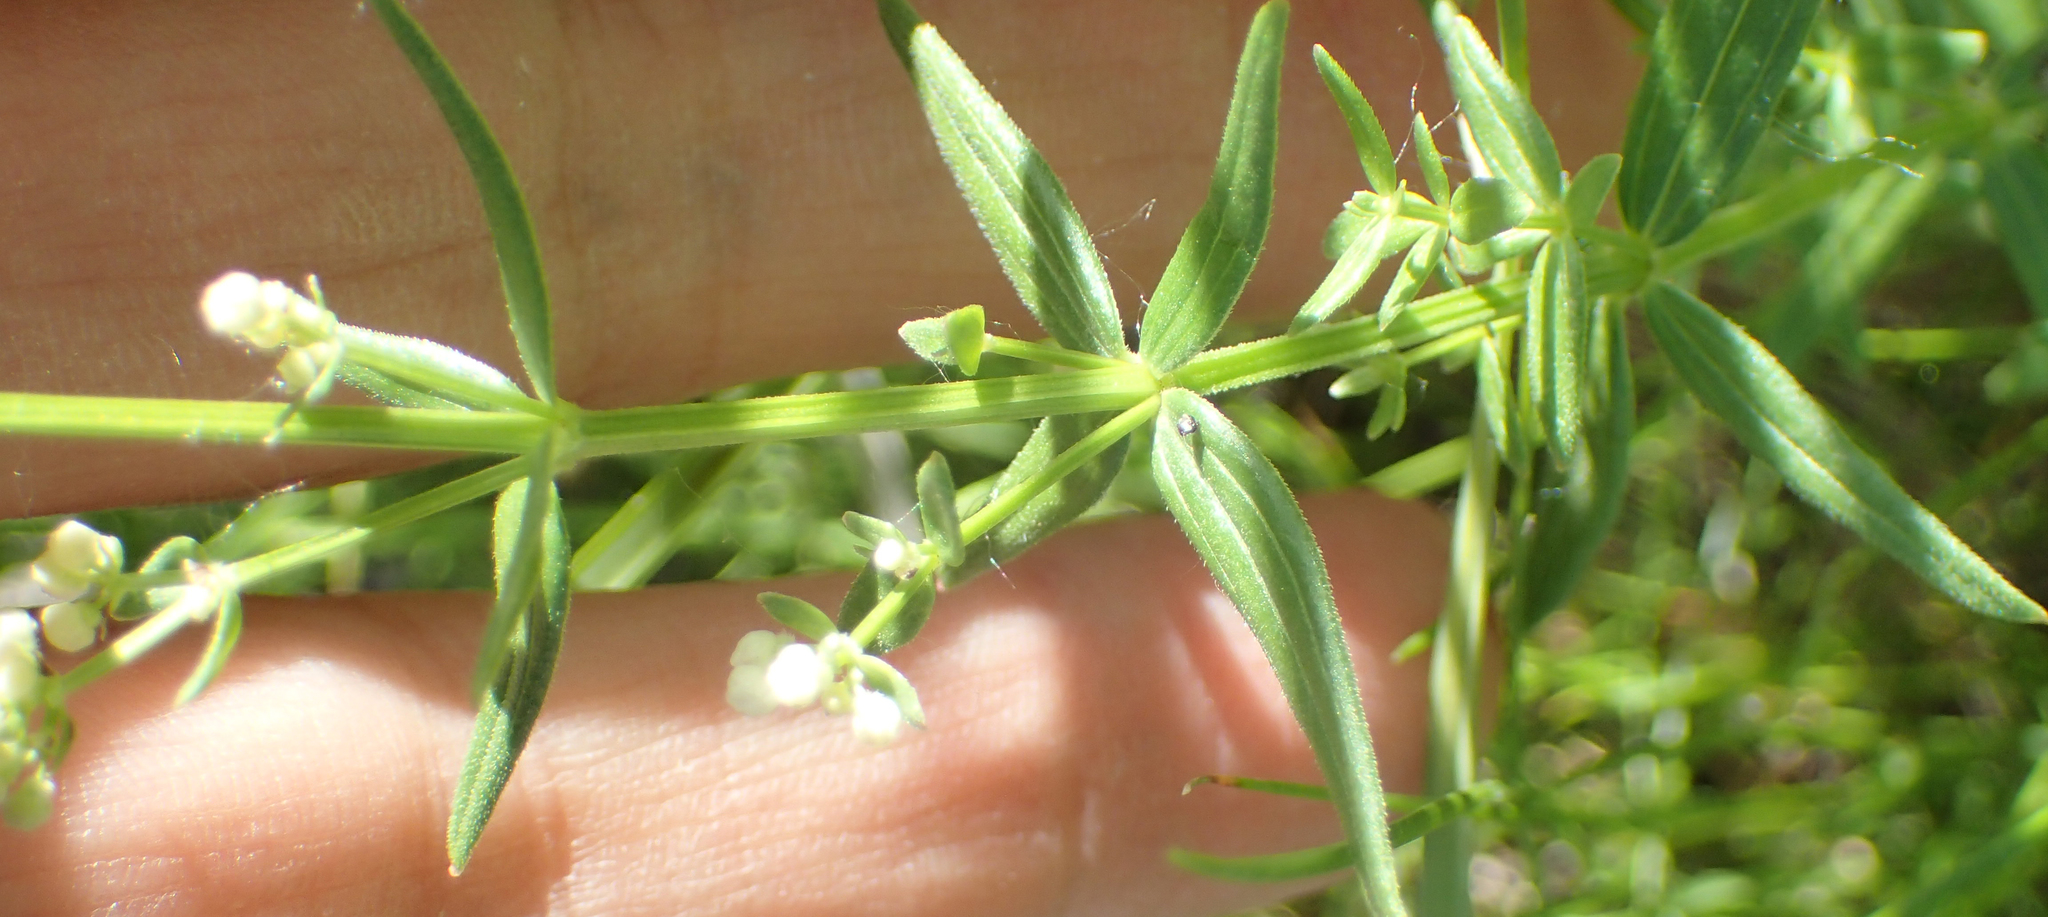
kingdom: Plantae
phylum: Tracheophyta
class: Magnoliopsida
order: Gentianales
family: Rubiaceae
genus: Galium
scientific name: Galium boreale
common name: Northern bedstraw
